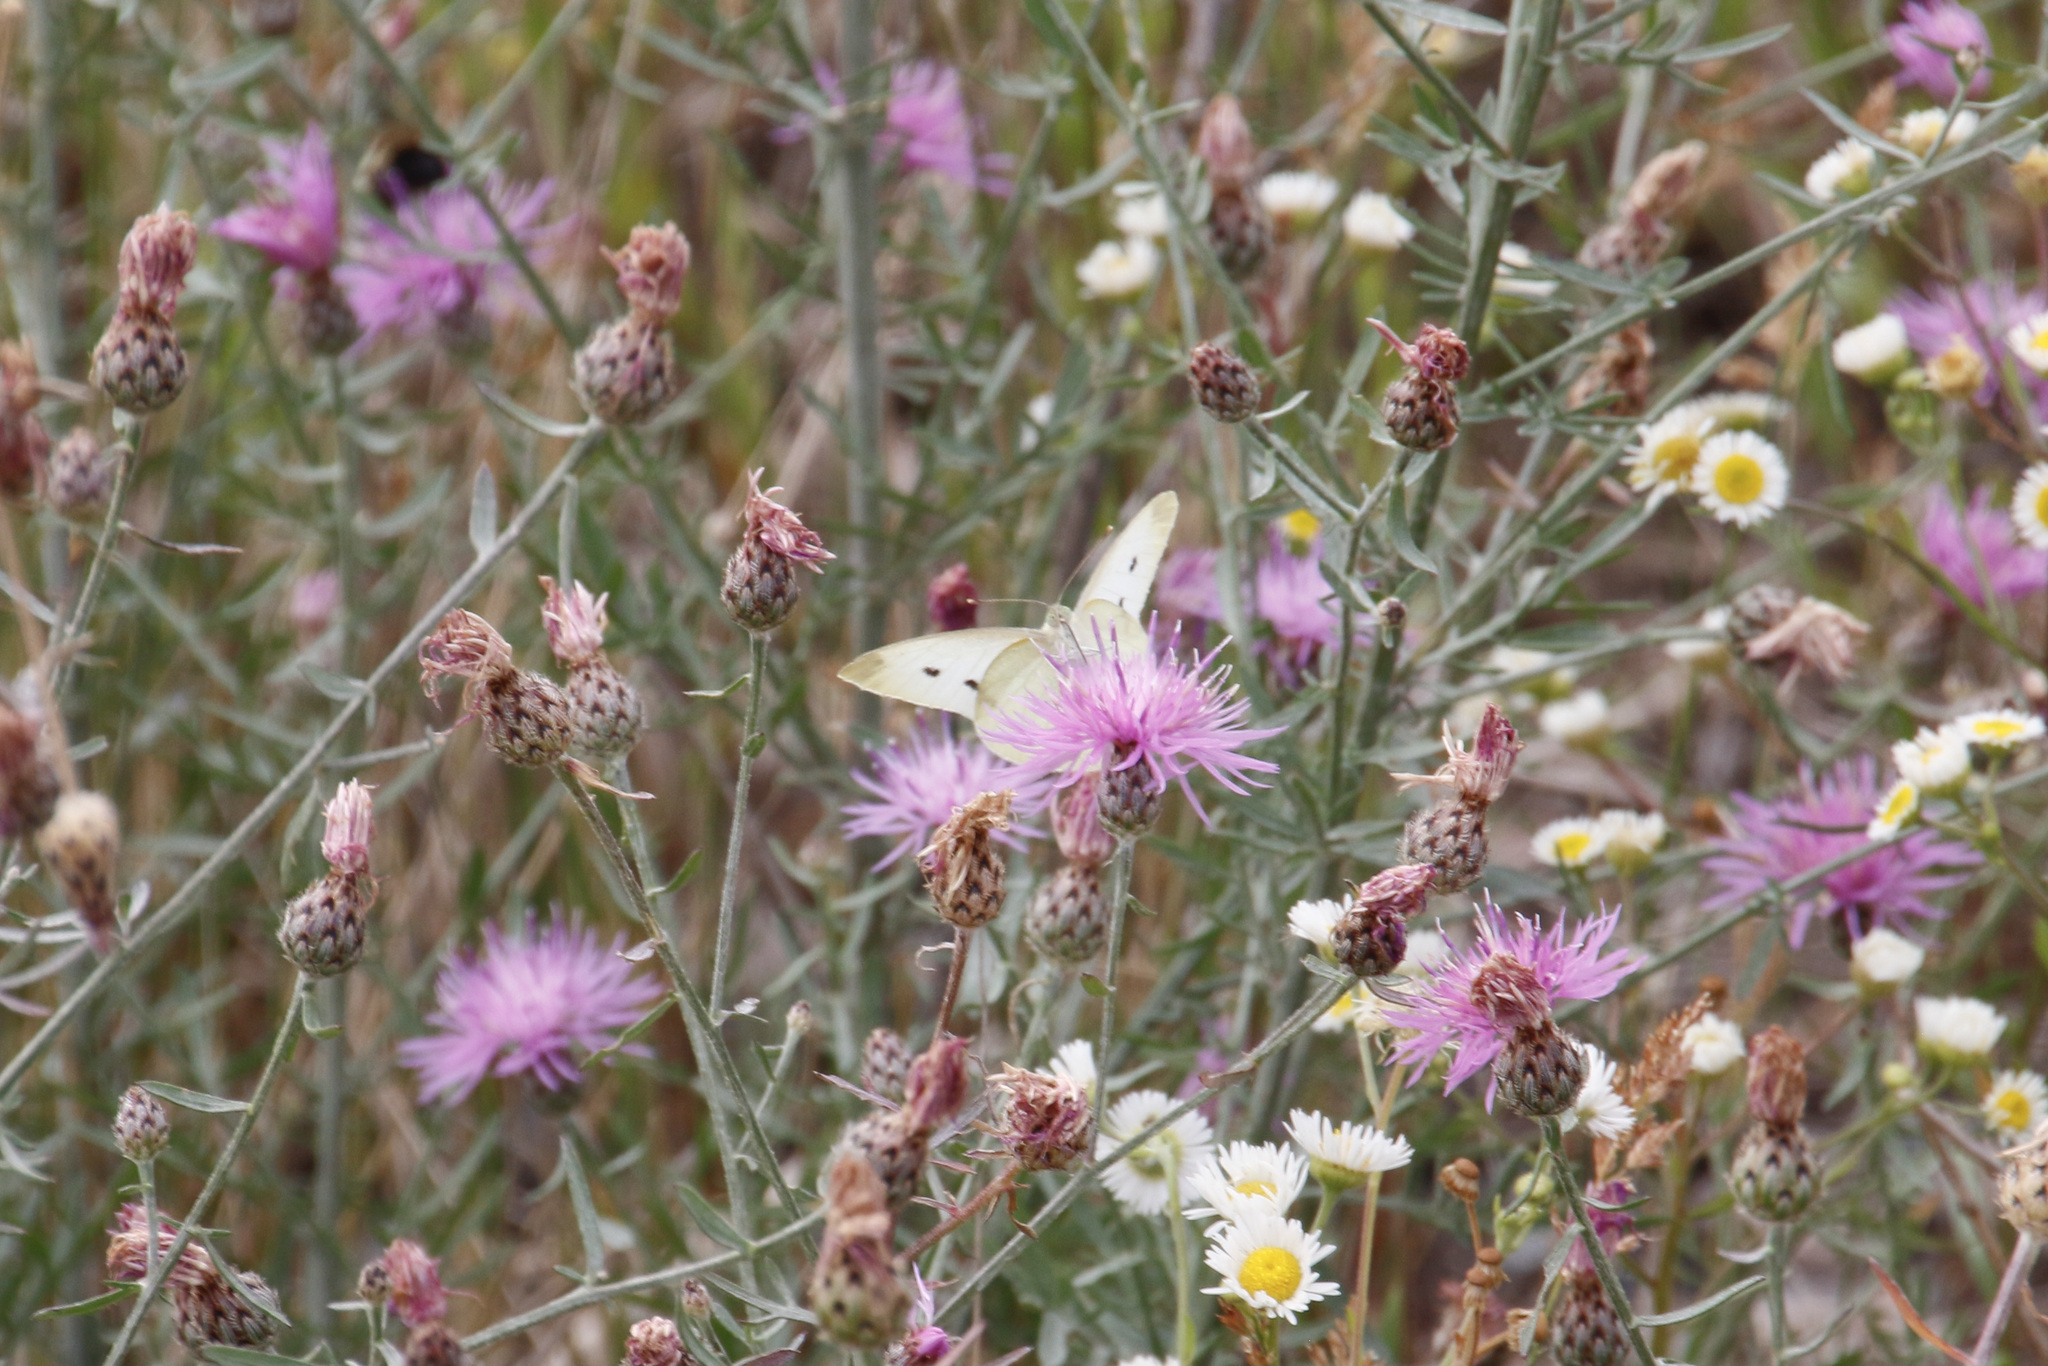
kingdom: Animalia
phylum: Arthropoda
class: Insecta
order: Lepidoptera
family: Pieridae
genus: Pieris
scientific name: Pieris rapae
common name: Small white
